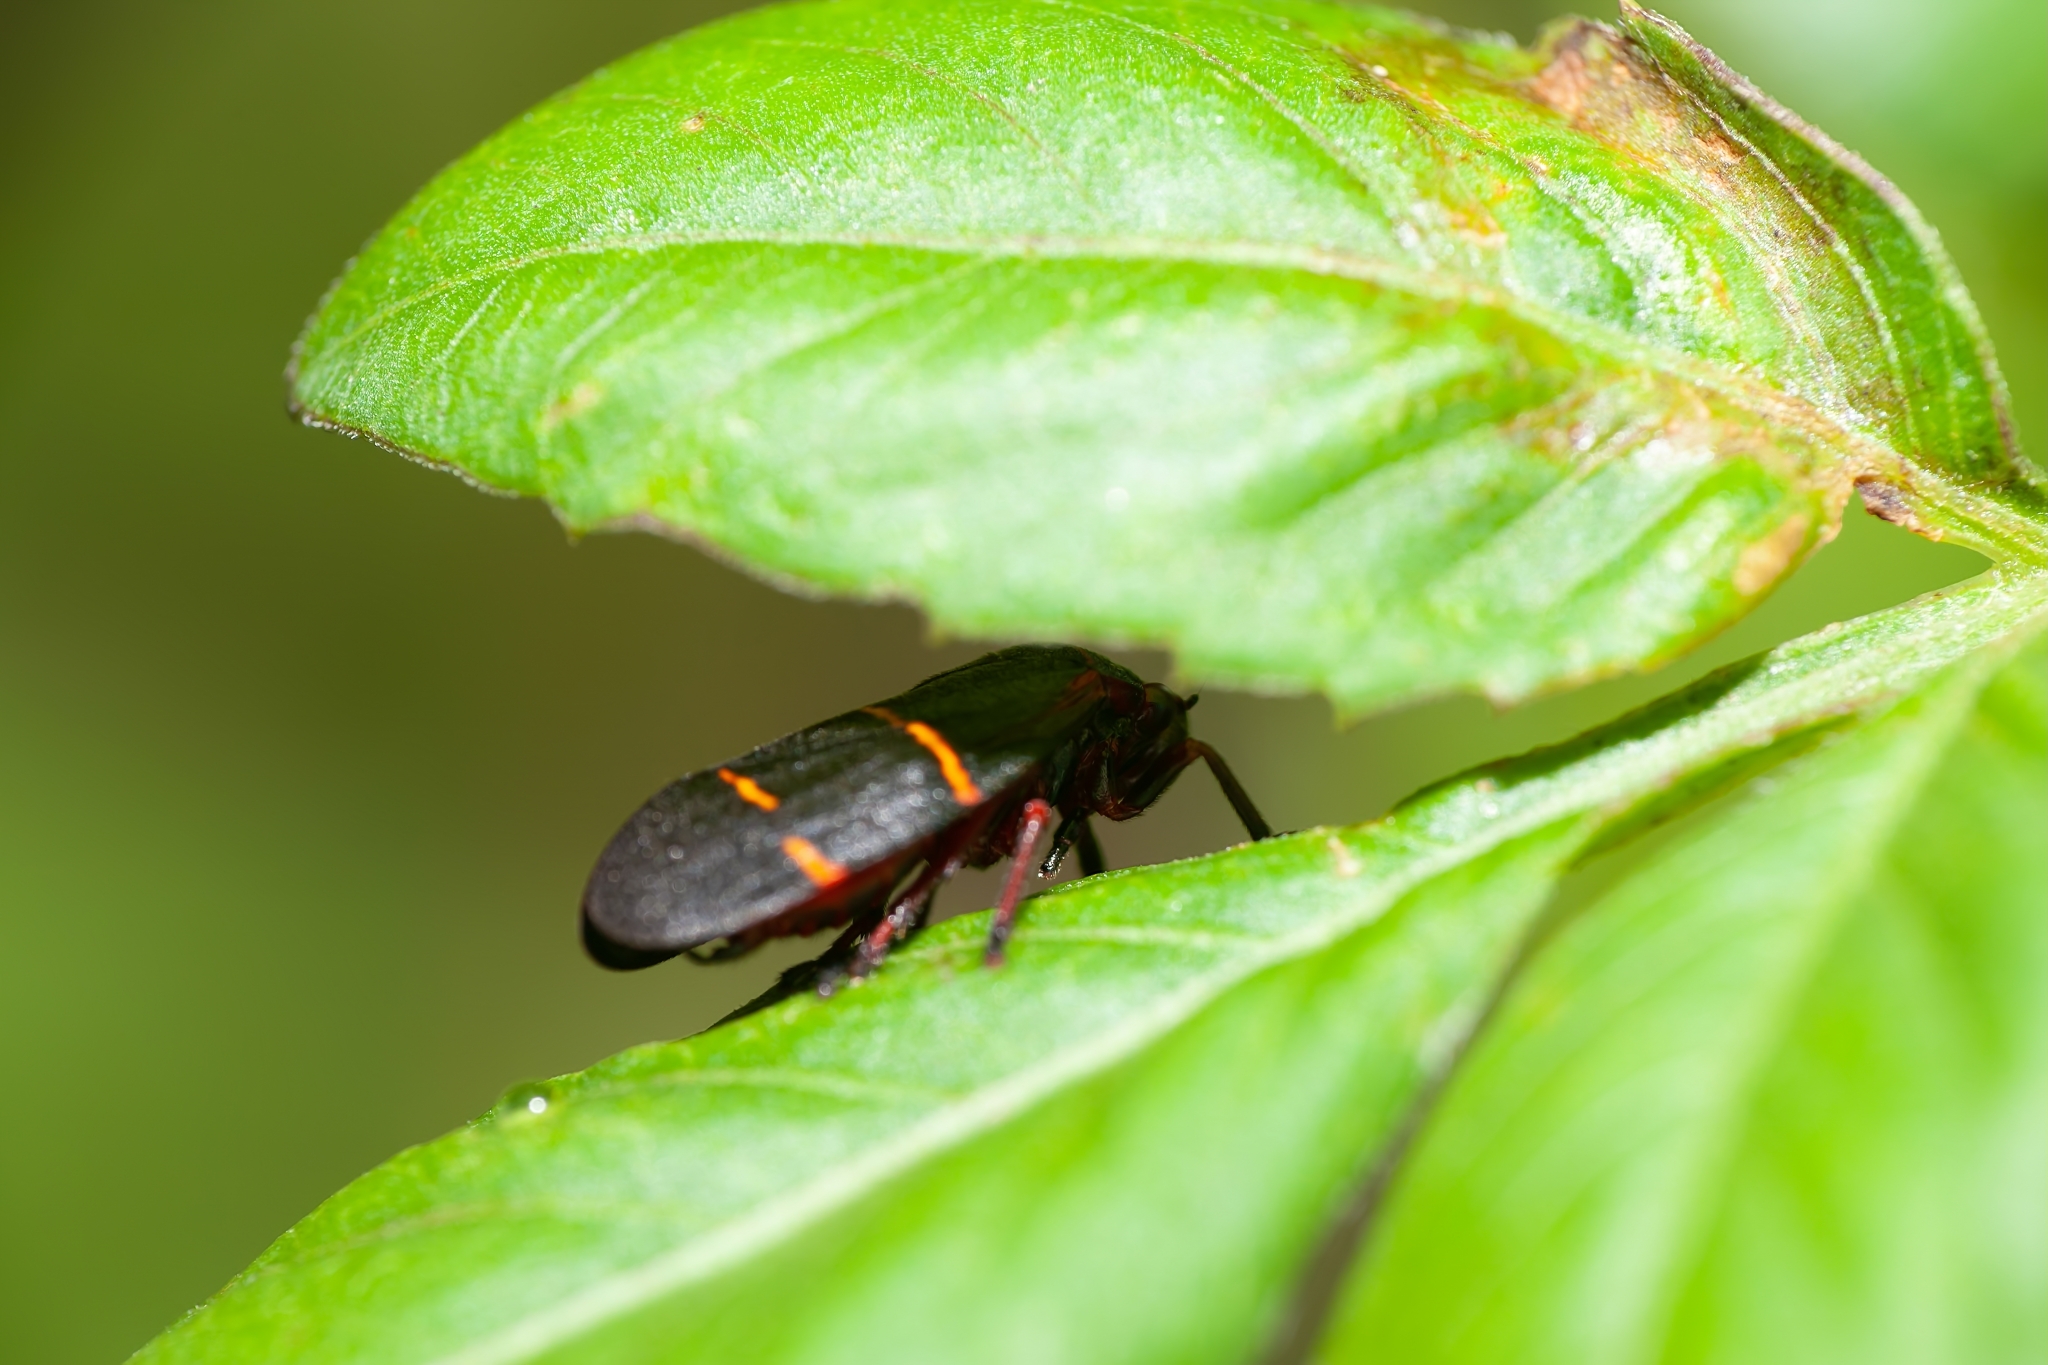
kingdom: Animalia
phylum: Arthropoda
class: Insecta
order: Hemiptera
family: Cercopidae
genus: Prosapia
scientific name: Prosapia bicincta
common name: Twolined spittlebug
